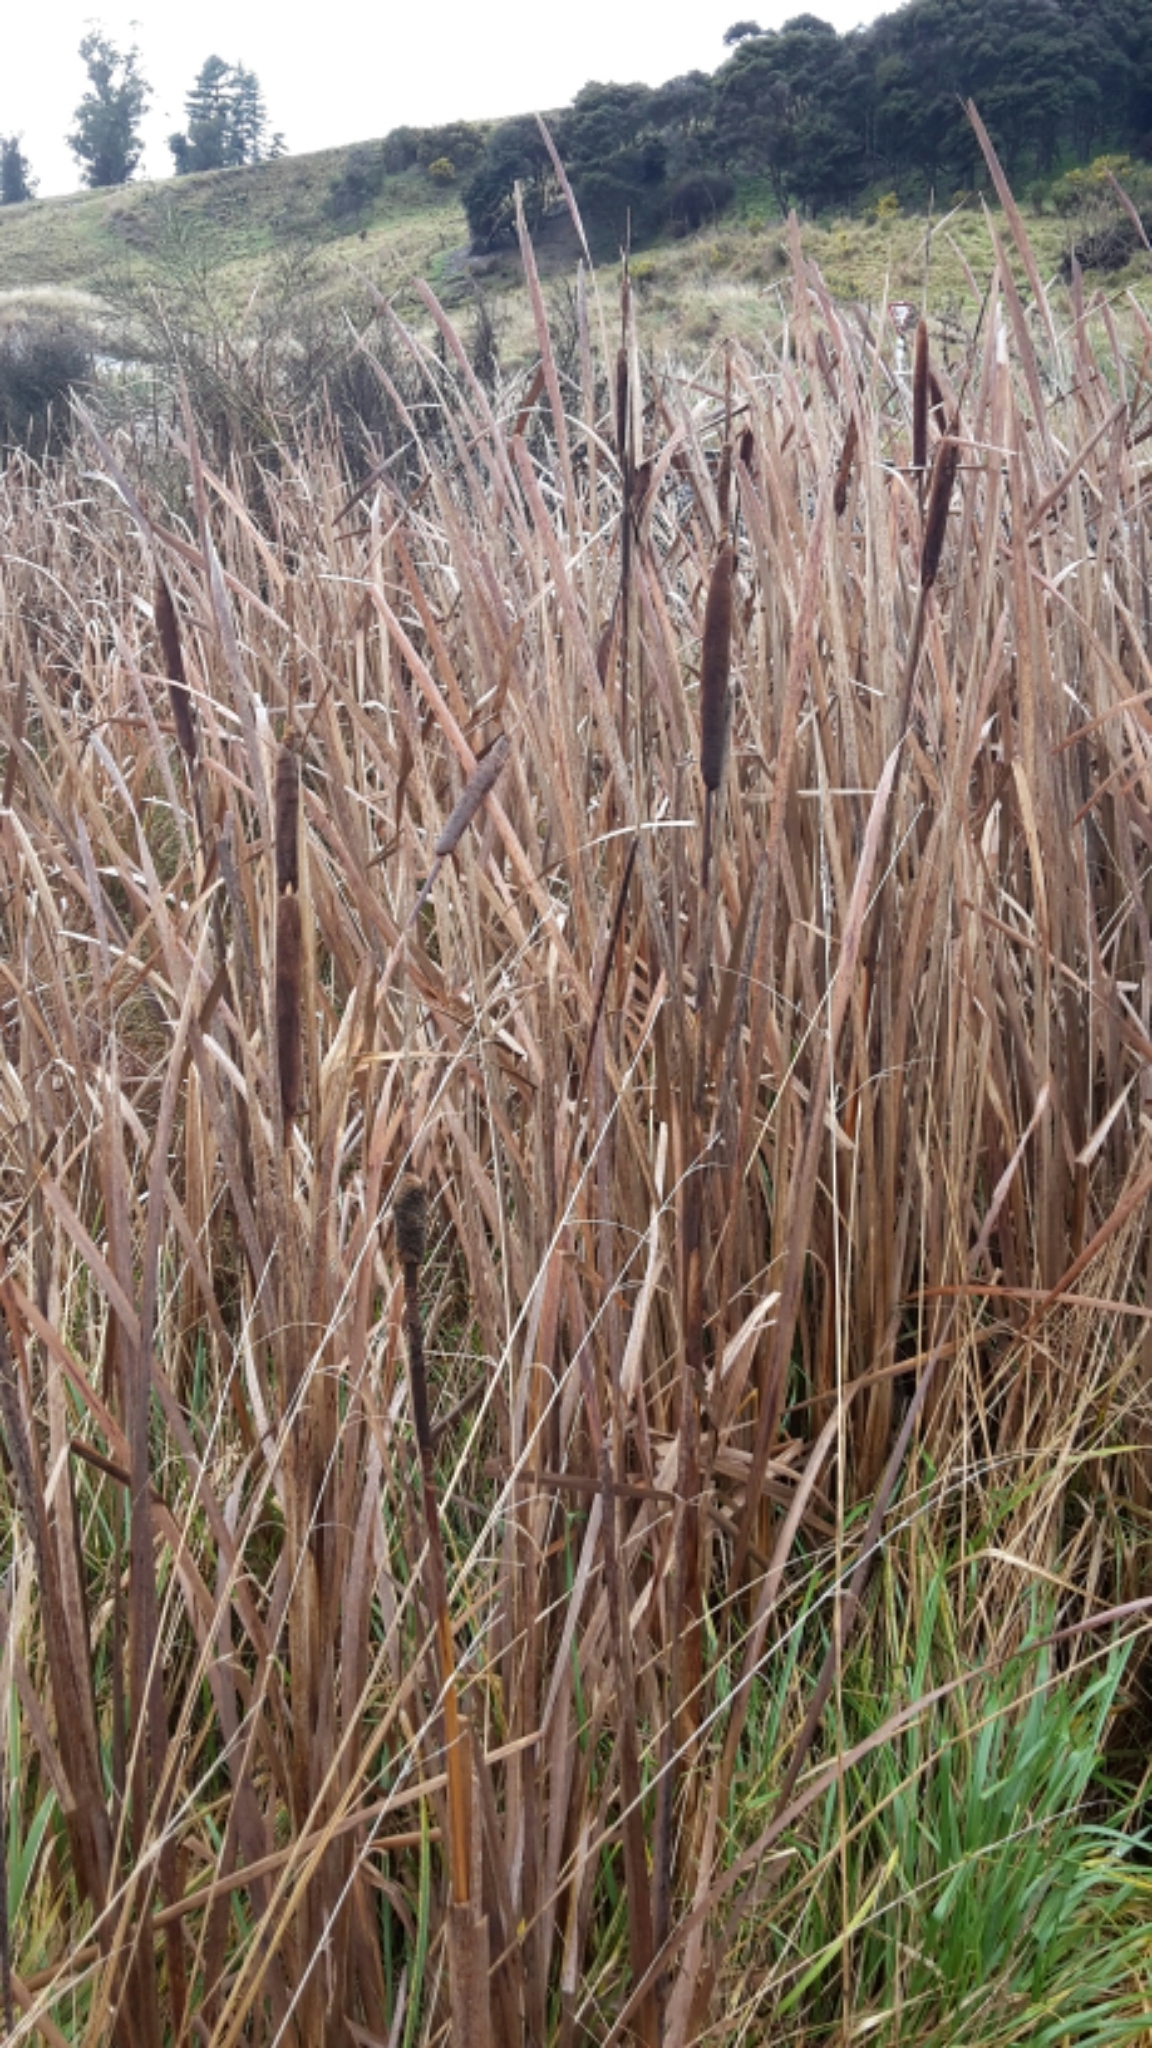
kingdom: Plantae
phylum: Tracheophyta
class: Liliopsida
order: Poales
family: Typhaceae
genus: Typha
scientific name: Typha orientalis
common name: Bullrush
